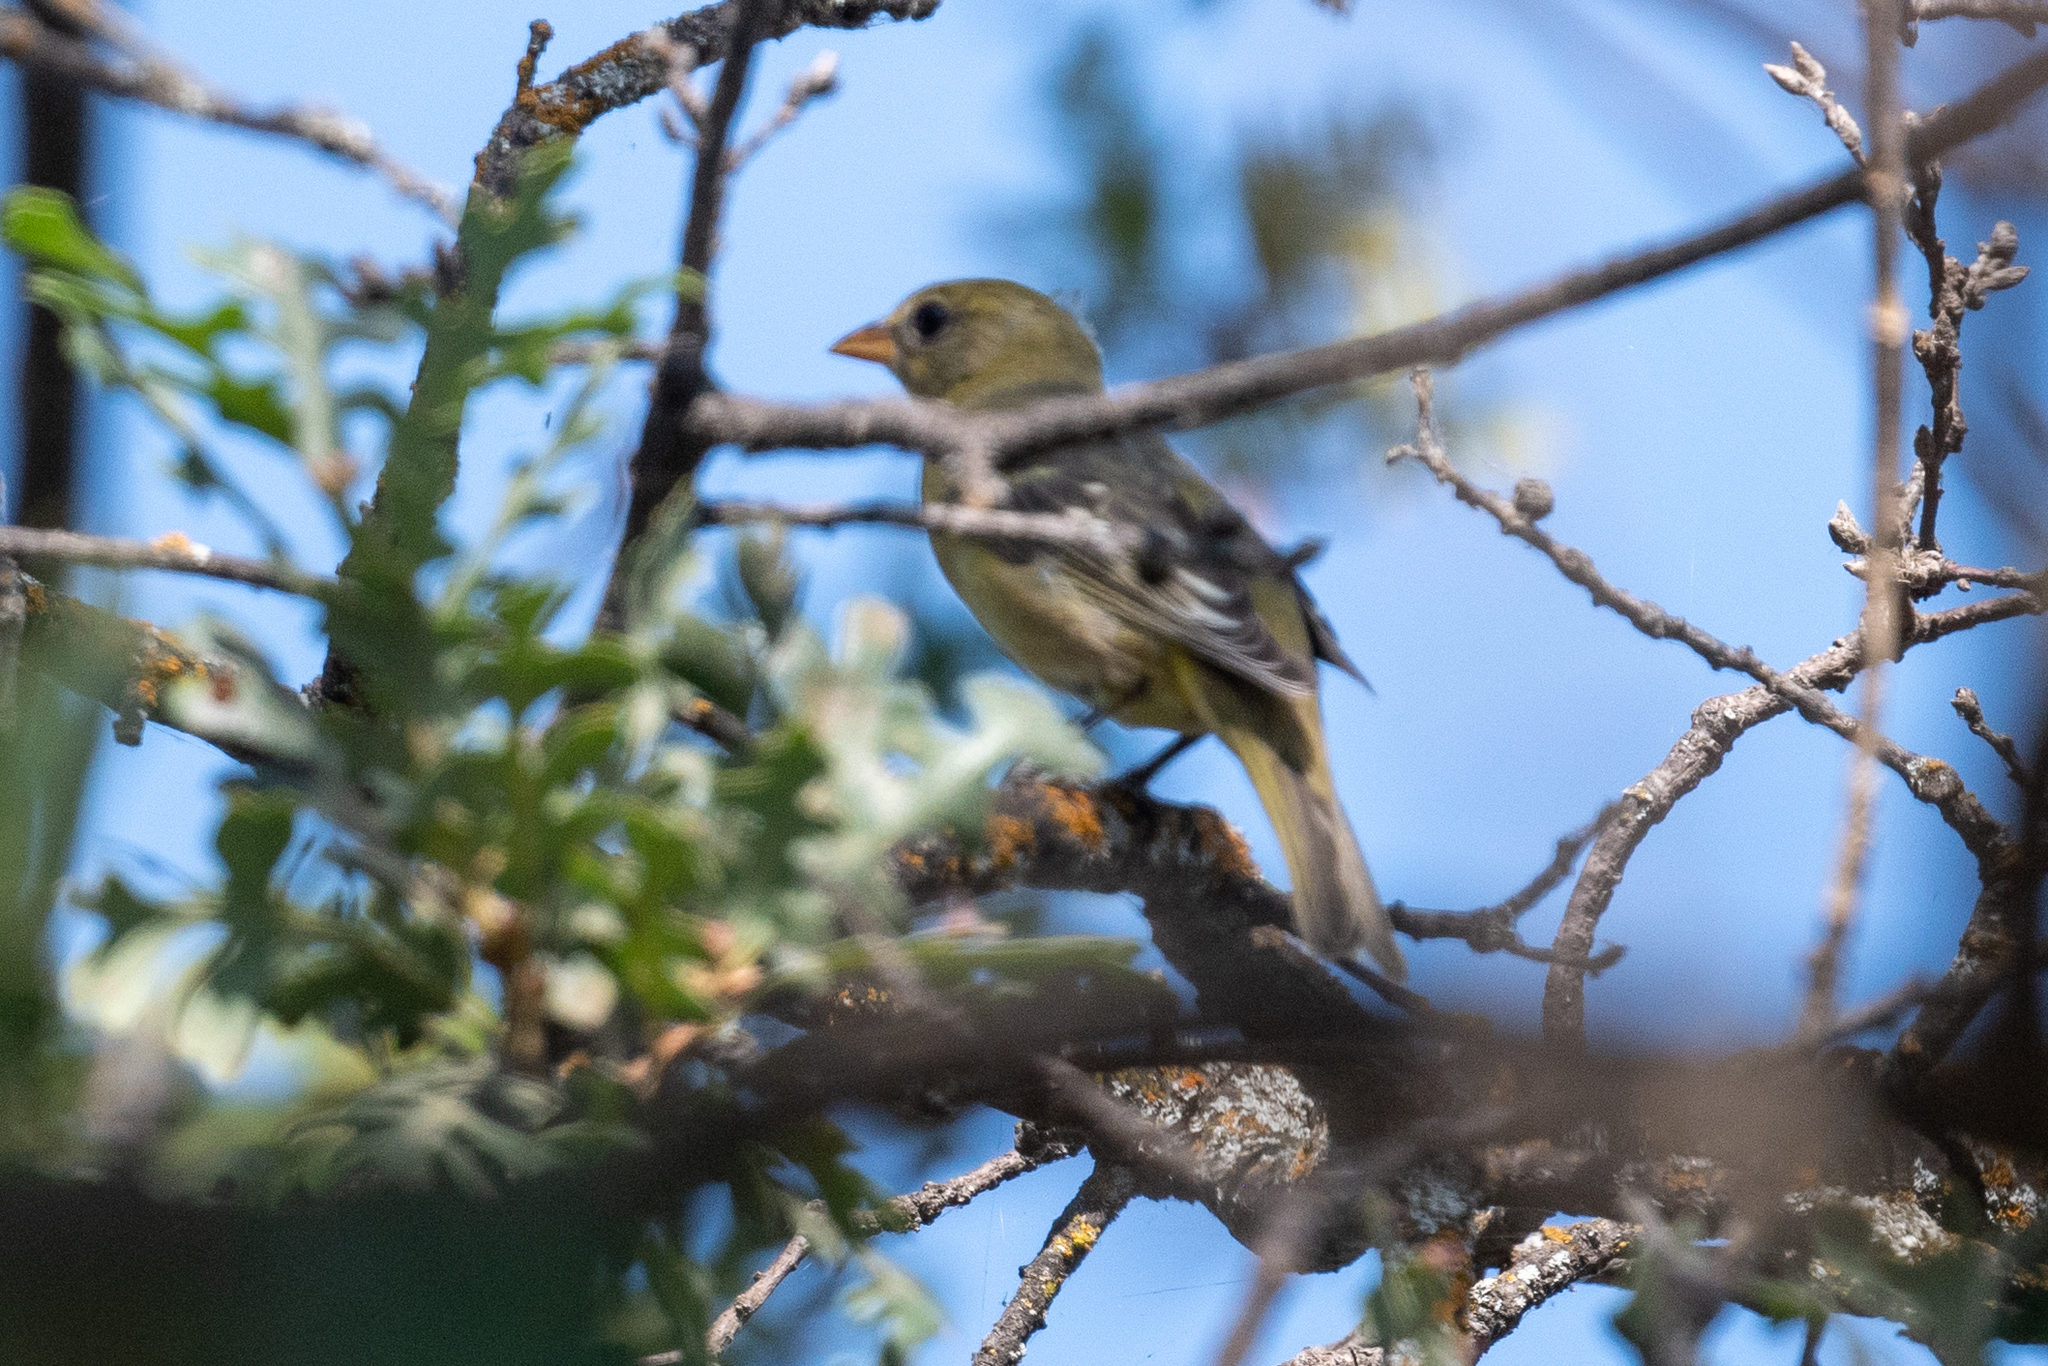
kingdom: Animalia
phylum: Chordata
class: Aves
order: Passeriformes
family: Cardinalidae
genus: Piranga
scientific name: Piranga ludoviciana
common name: Western tanager
